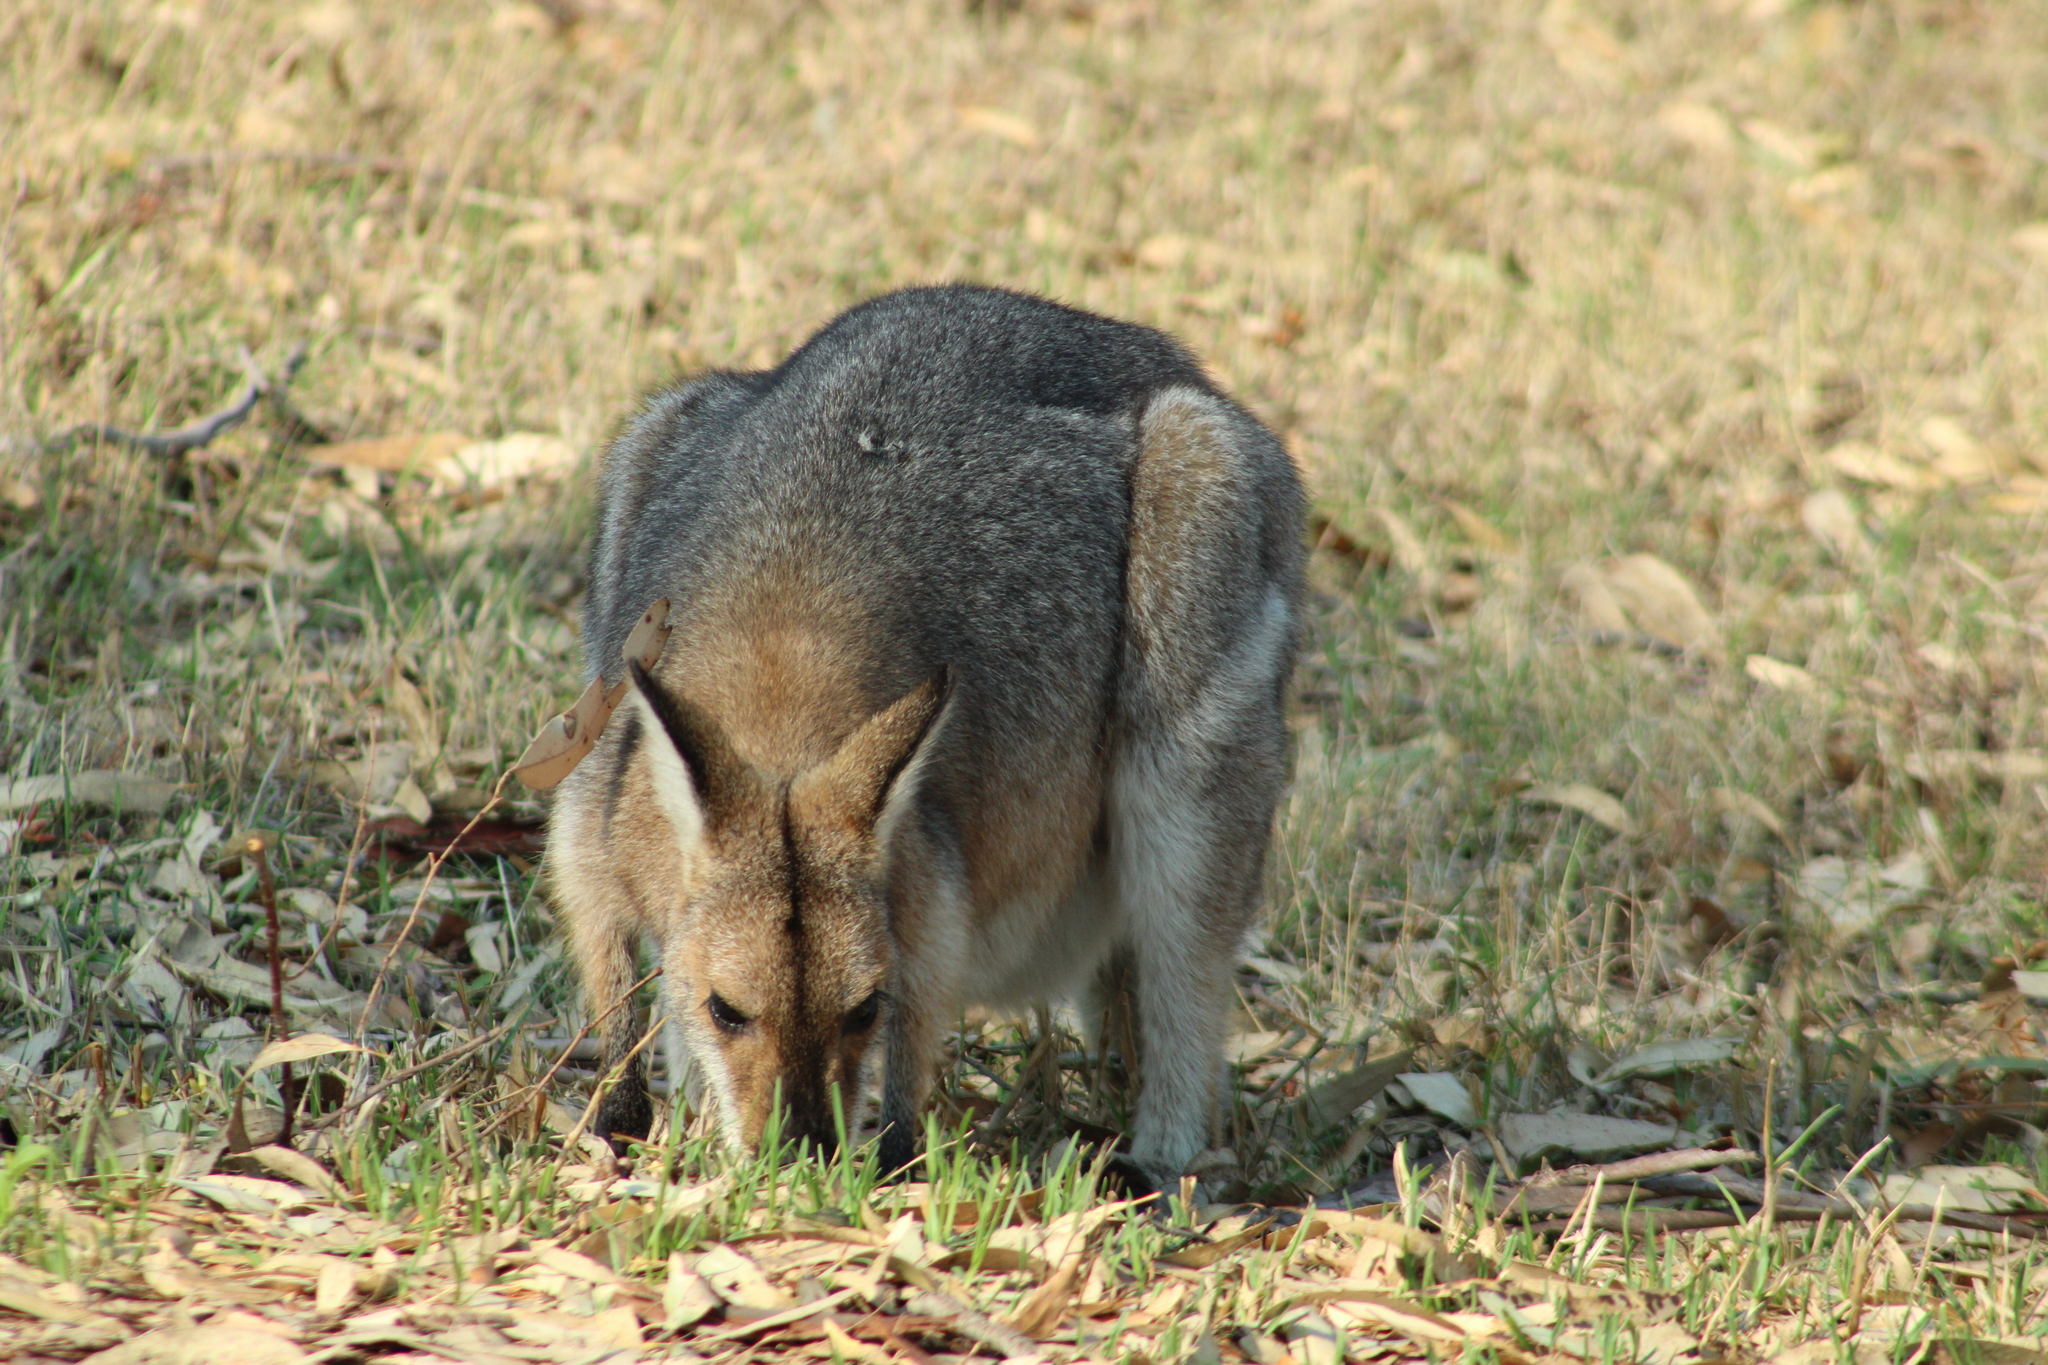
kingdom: Animalia
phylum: Chordata
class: Mammalia
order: Diprotodontia
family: Macropodidae
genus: Notamacropus
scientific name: Notamacropus rufogriseus
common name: Red-necked wallaby
